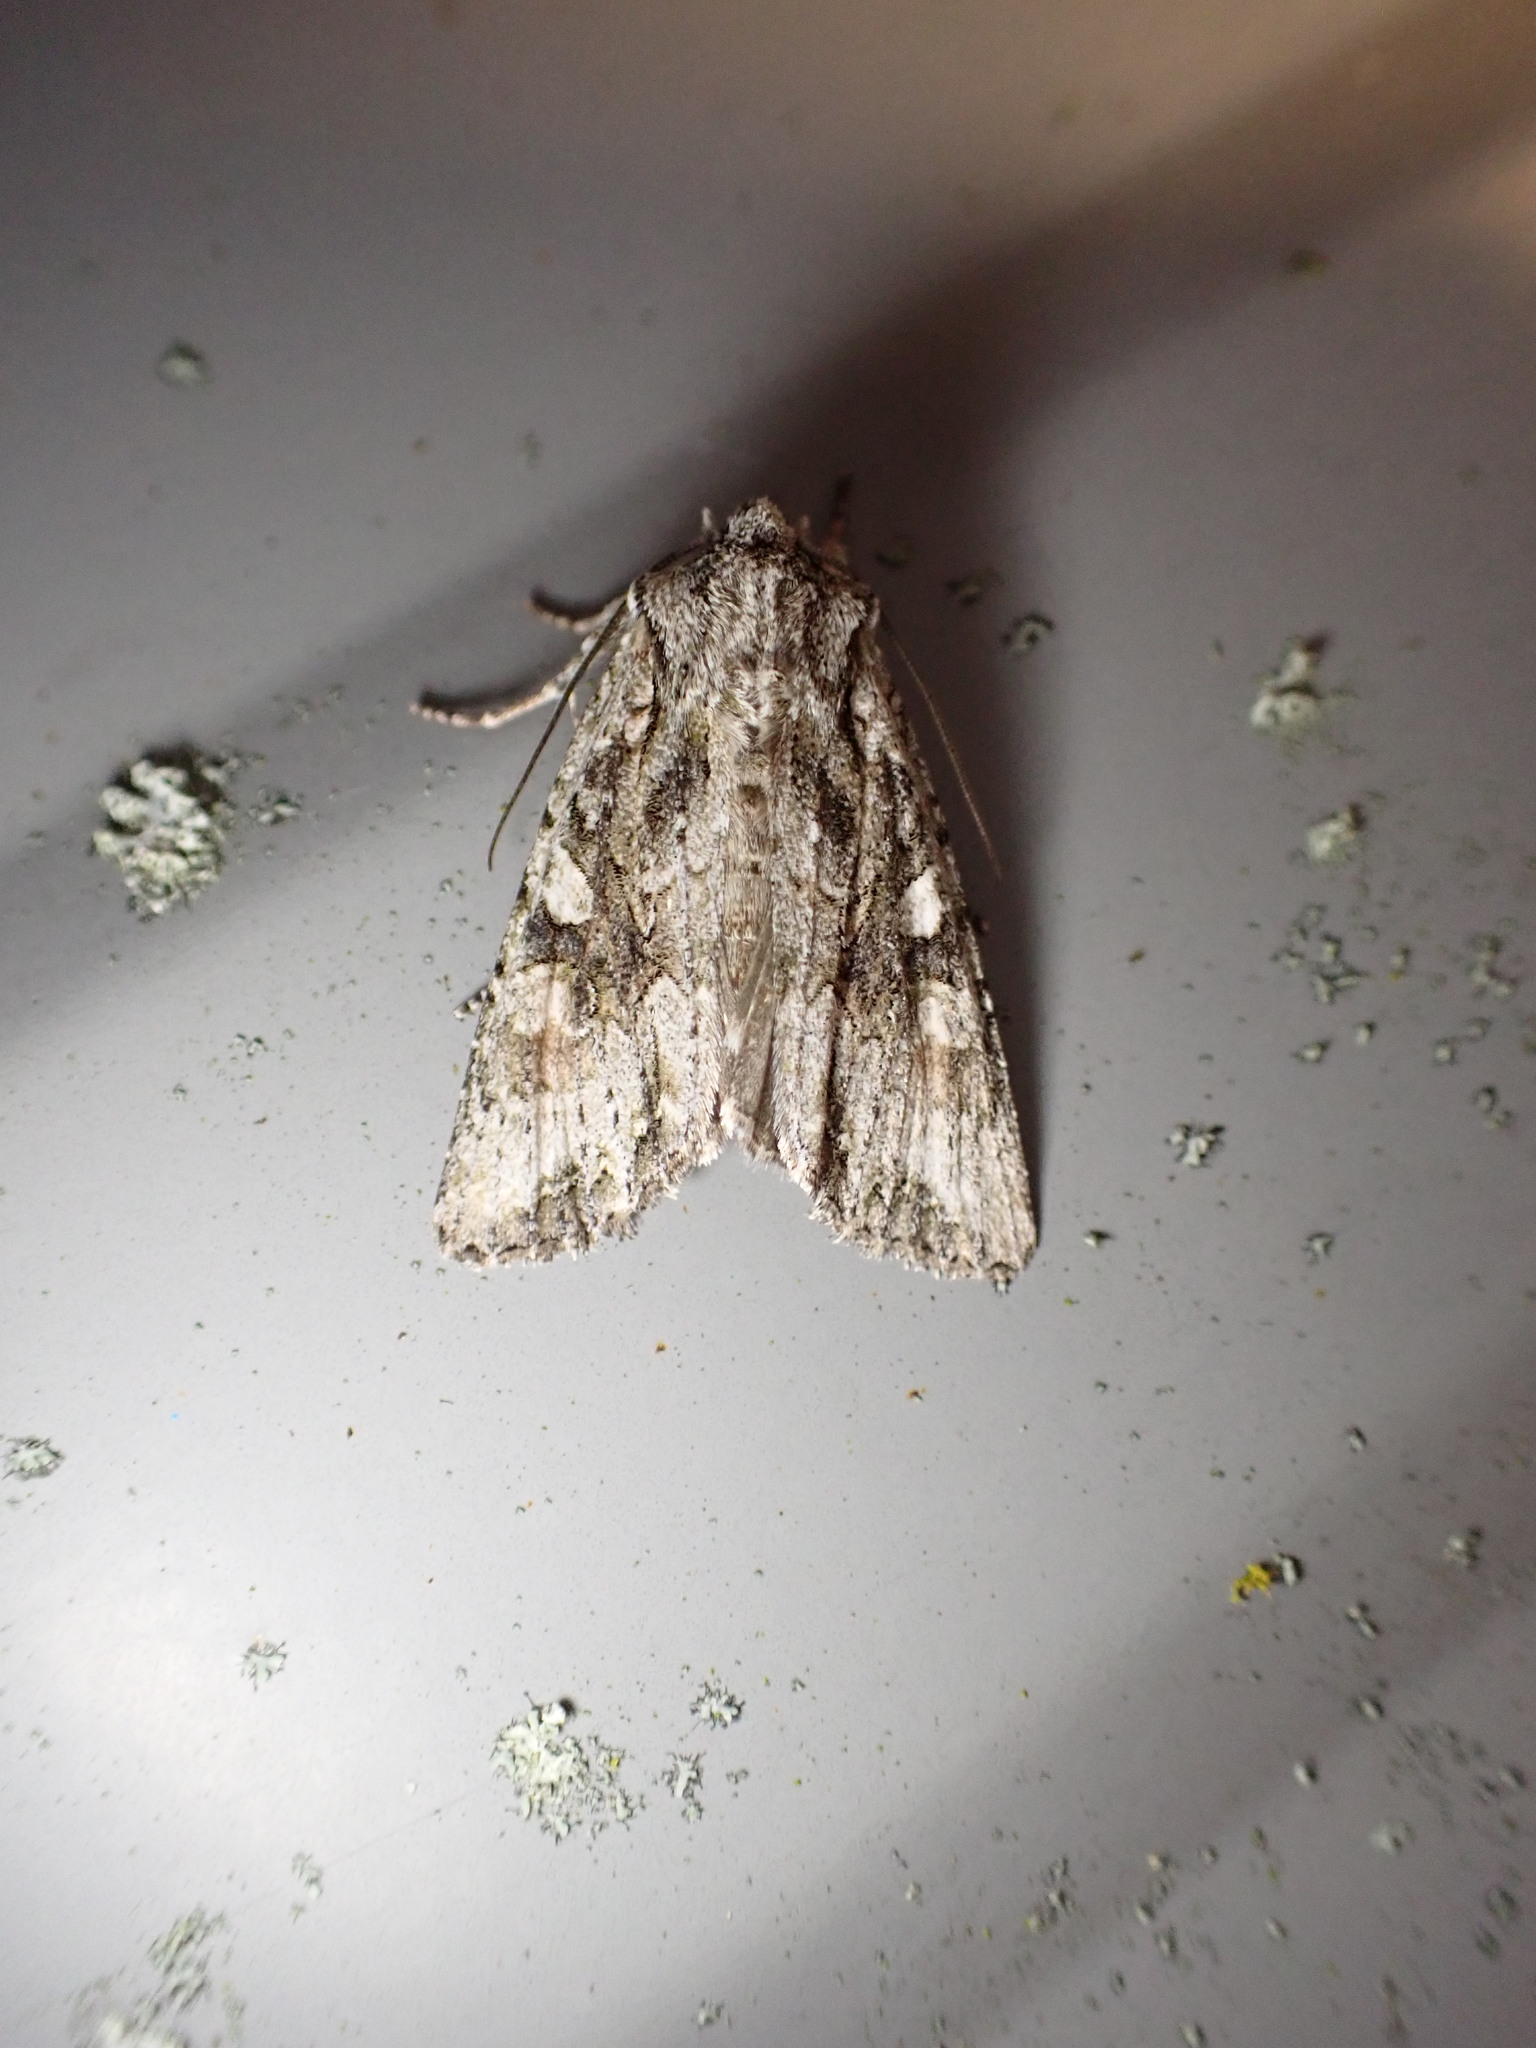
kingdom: Animalia
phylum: Arthropoda
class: Insecta
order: Lepidoptera
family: Noctuidae
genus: Ichneutica
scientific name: Ichneutica mutans
